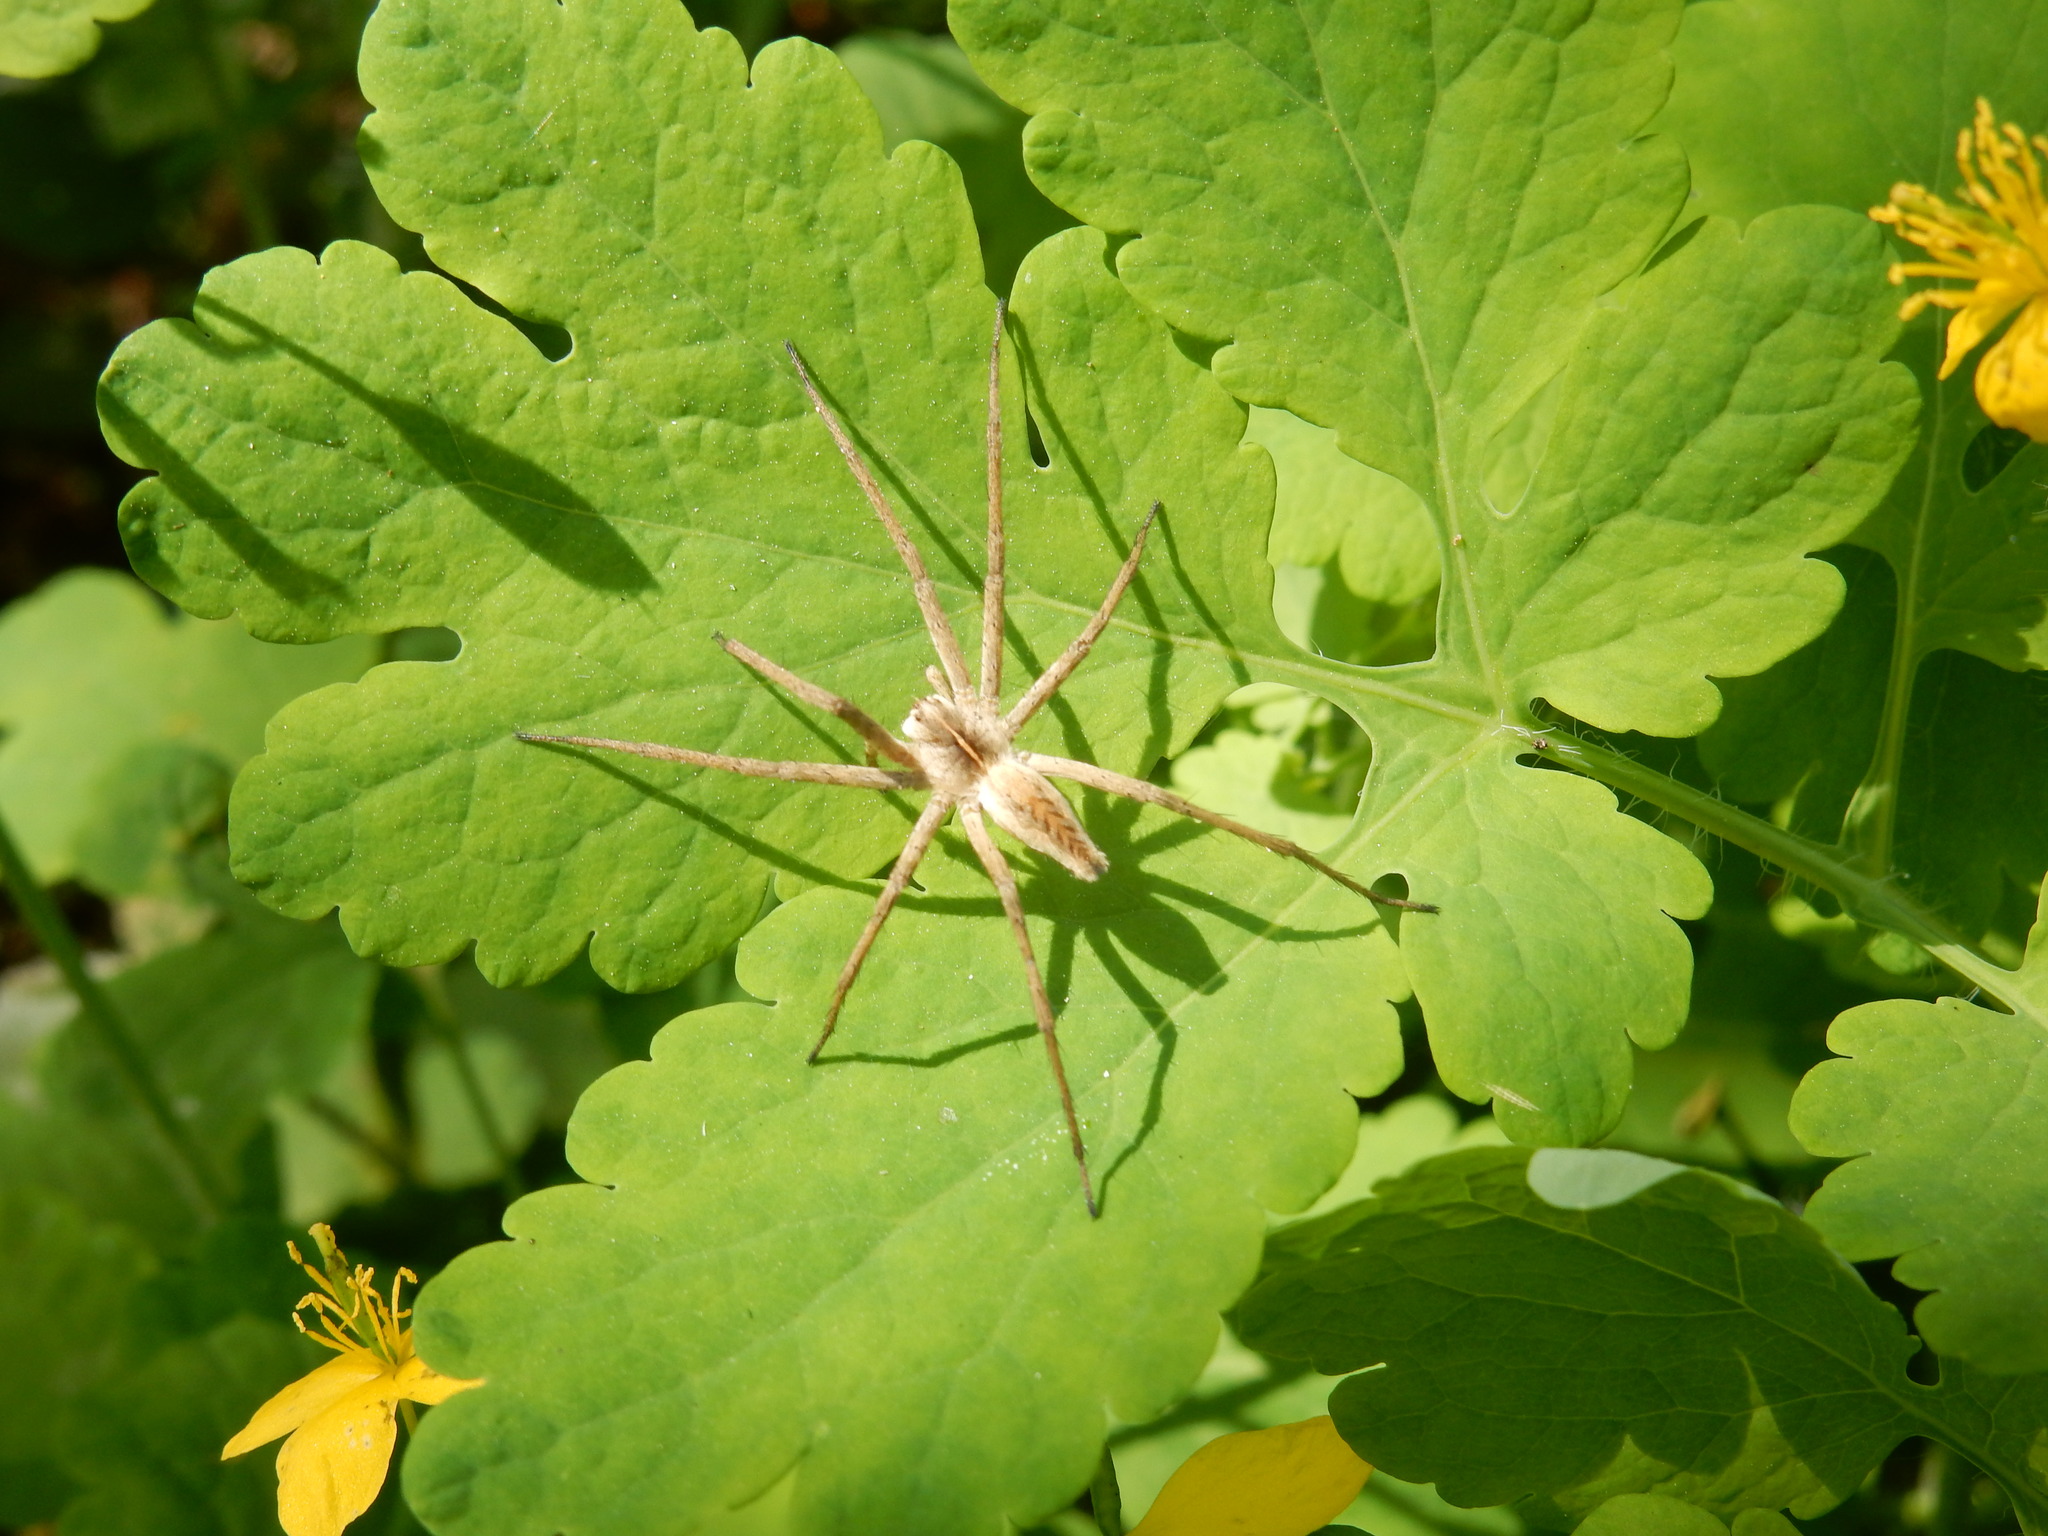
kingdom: Animalia
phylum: Arthropoda
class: Arachnida
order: Araneae
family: Pisauridae
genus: Pisaura
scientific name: Pisaura mirabilis
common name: Tent spider
